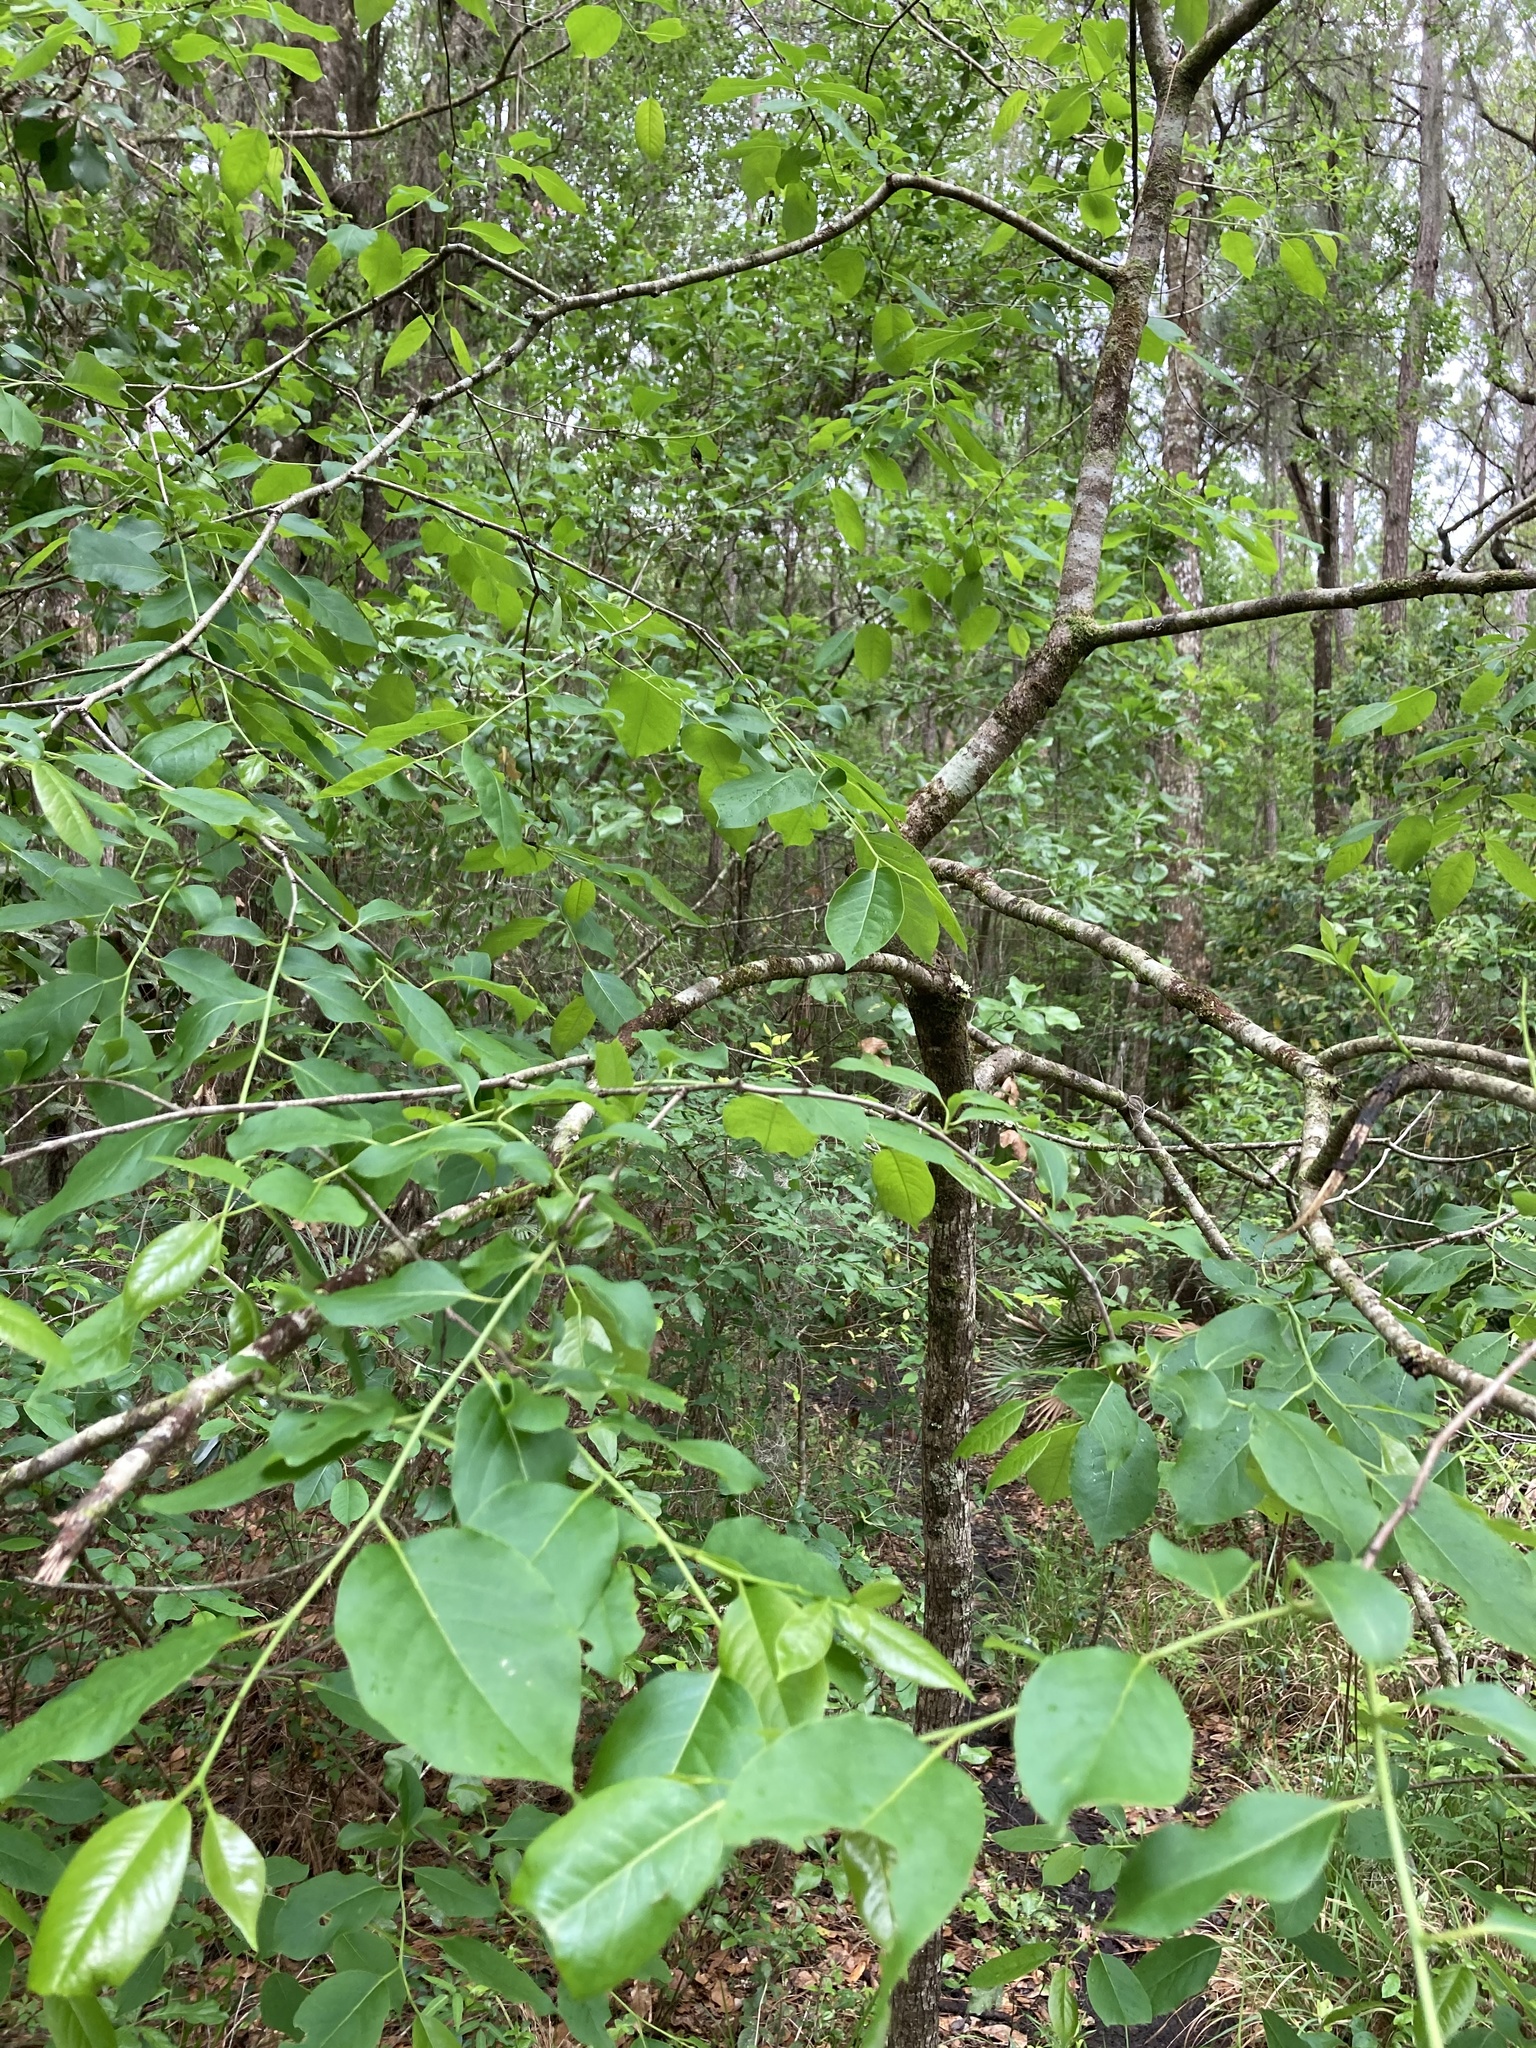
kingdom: Plantae
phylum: Tracheophyta
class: Magnoliopsida
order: Ericales
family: Ebenaceae
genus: Diospyros
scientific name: Diospyros virginiana
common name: Persimmon
